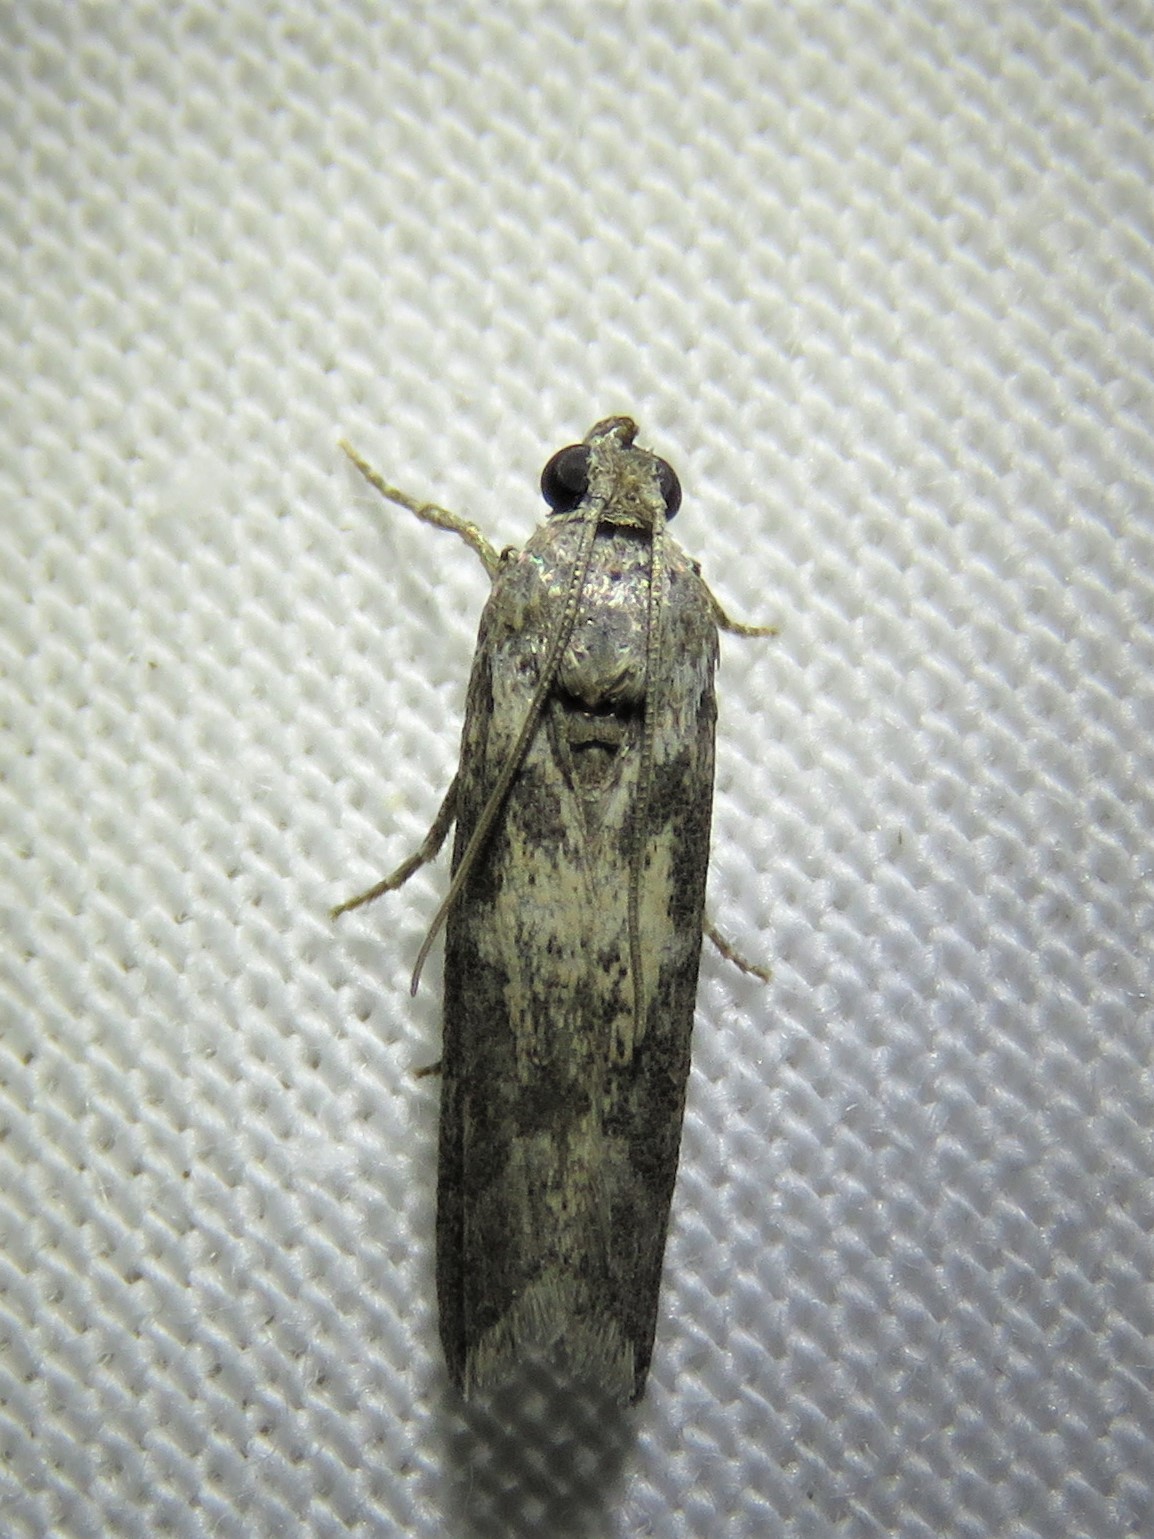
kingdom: Animalia
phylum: Arthropoda
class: Insecta
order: Lepidoptera
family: Pyralidae
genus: Tacoma
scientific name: Tacoma feriella
